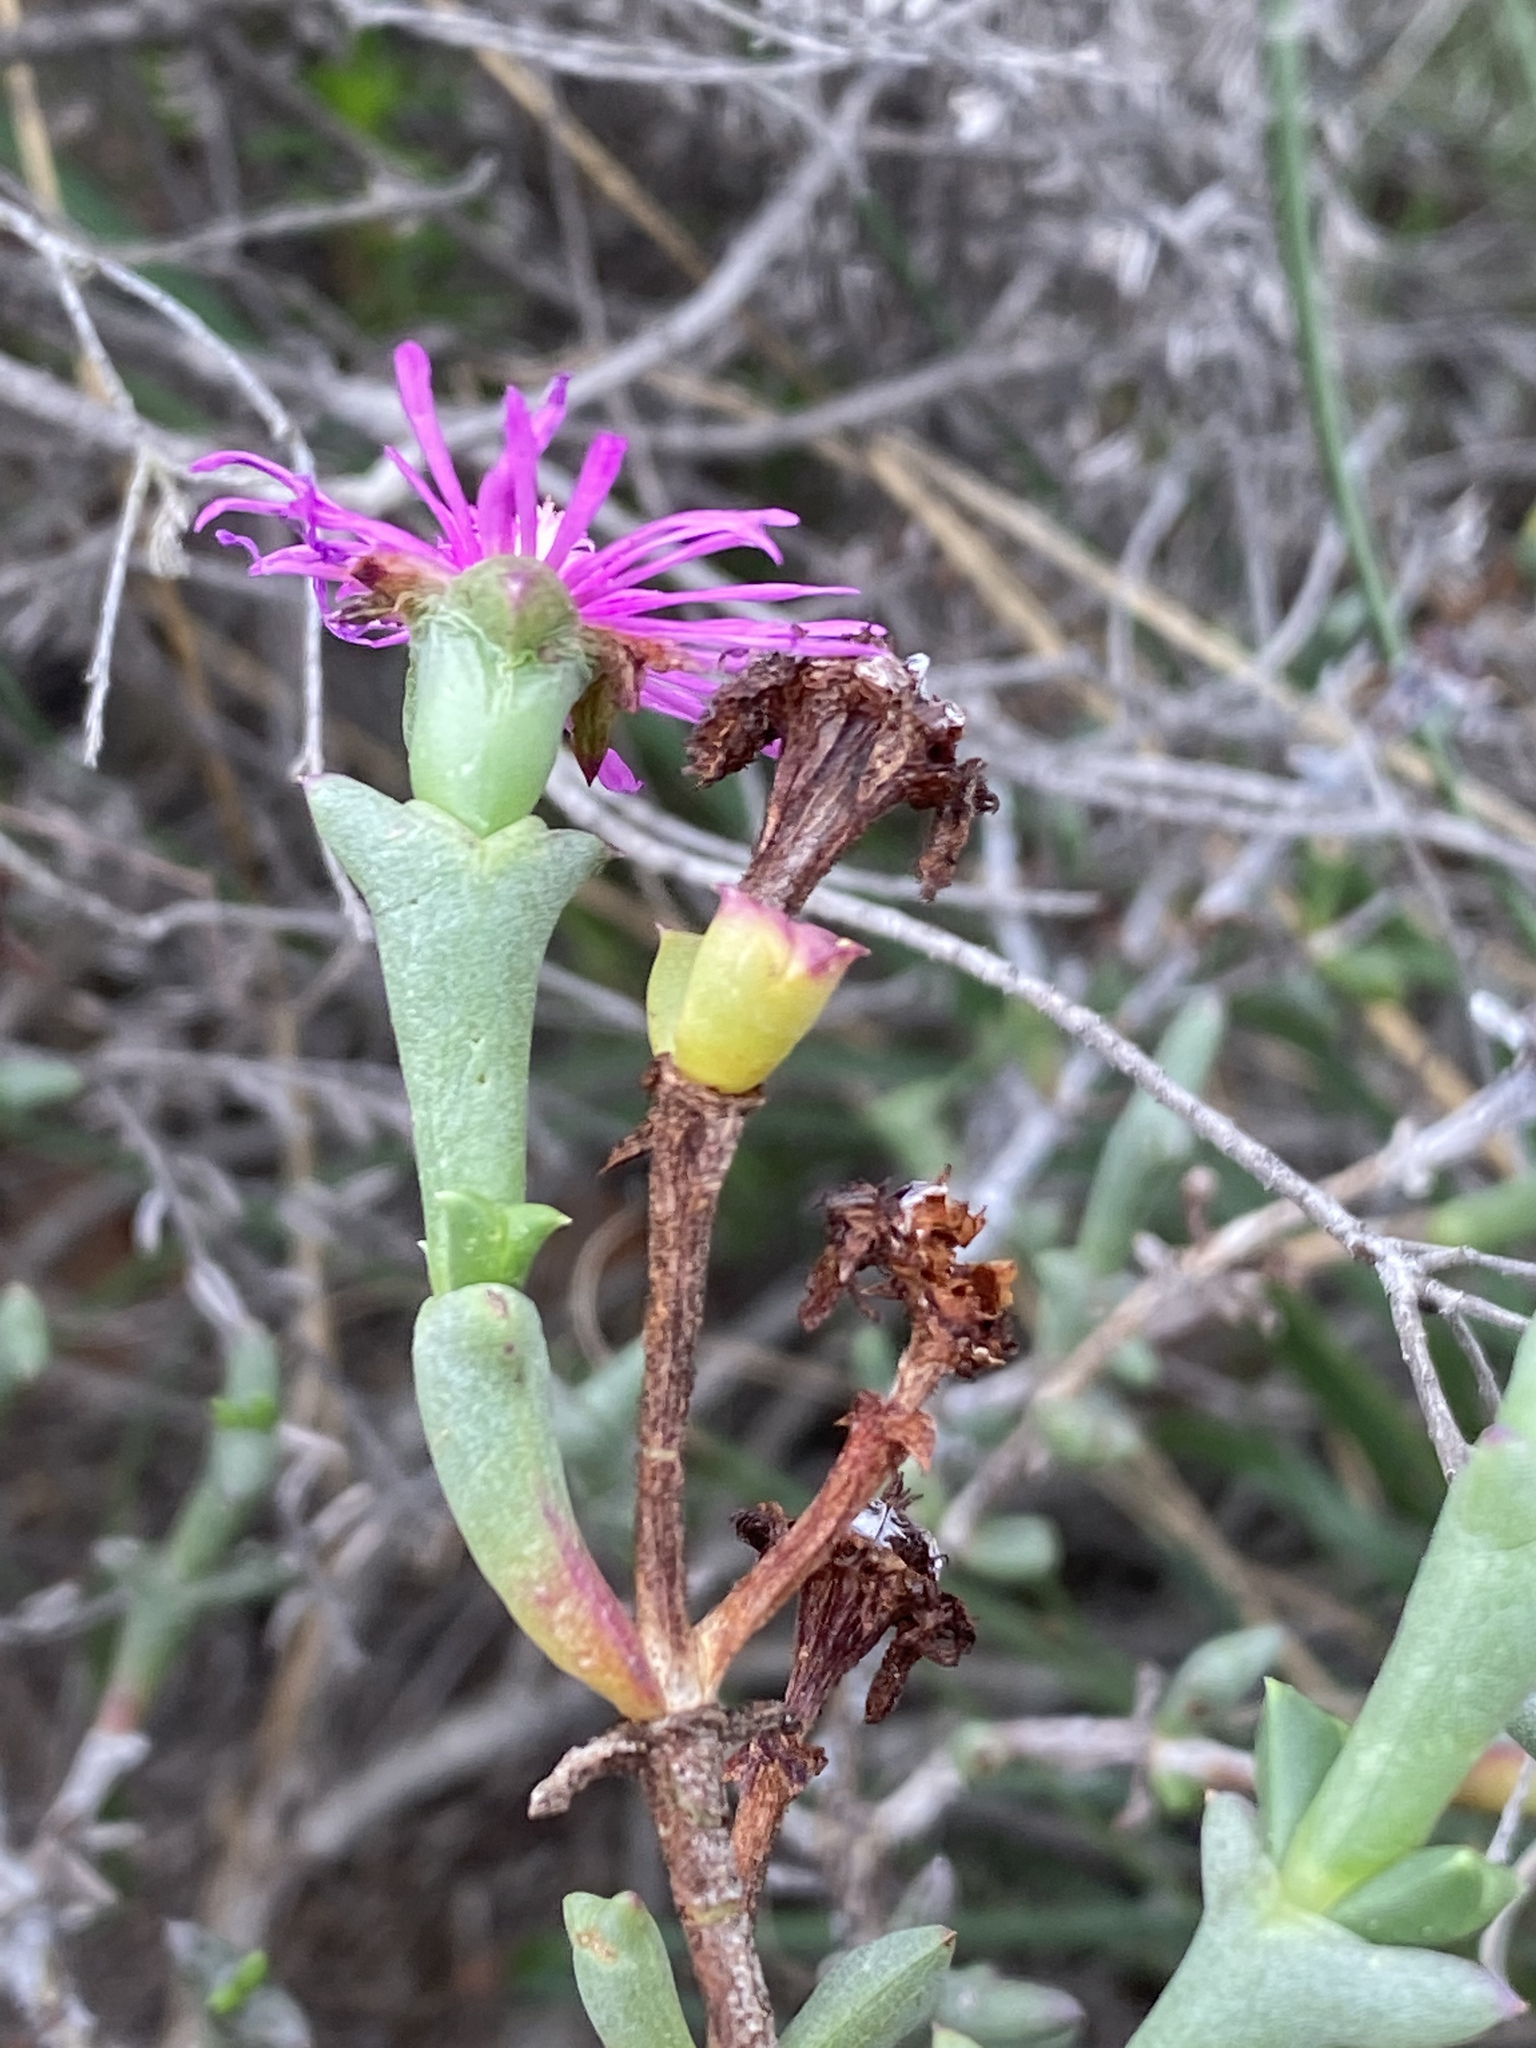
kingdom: Plantae
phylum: Tracheophyta
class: Magnoliopsida
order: Caryophyllales
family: Aizoaceae
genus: Smicrostigma
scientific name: Smicrostigma viride
